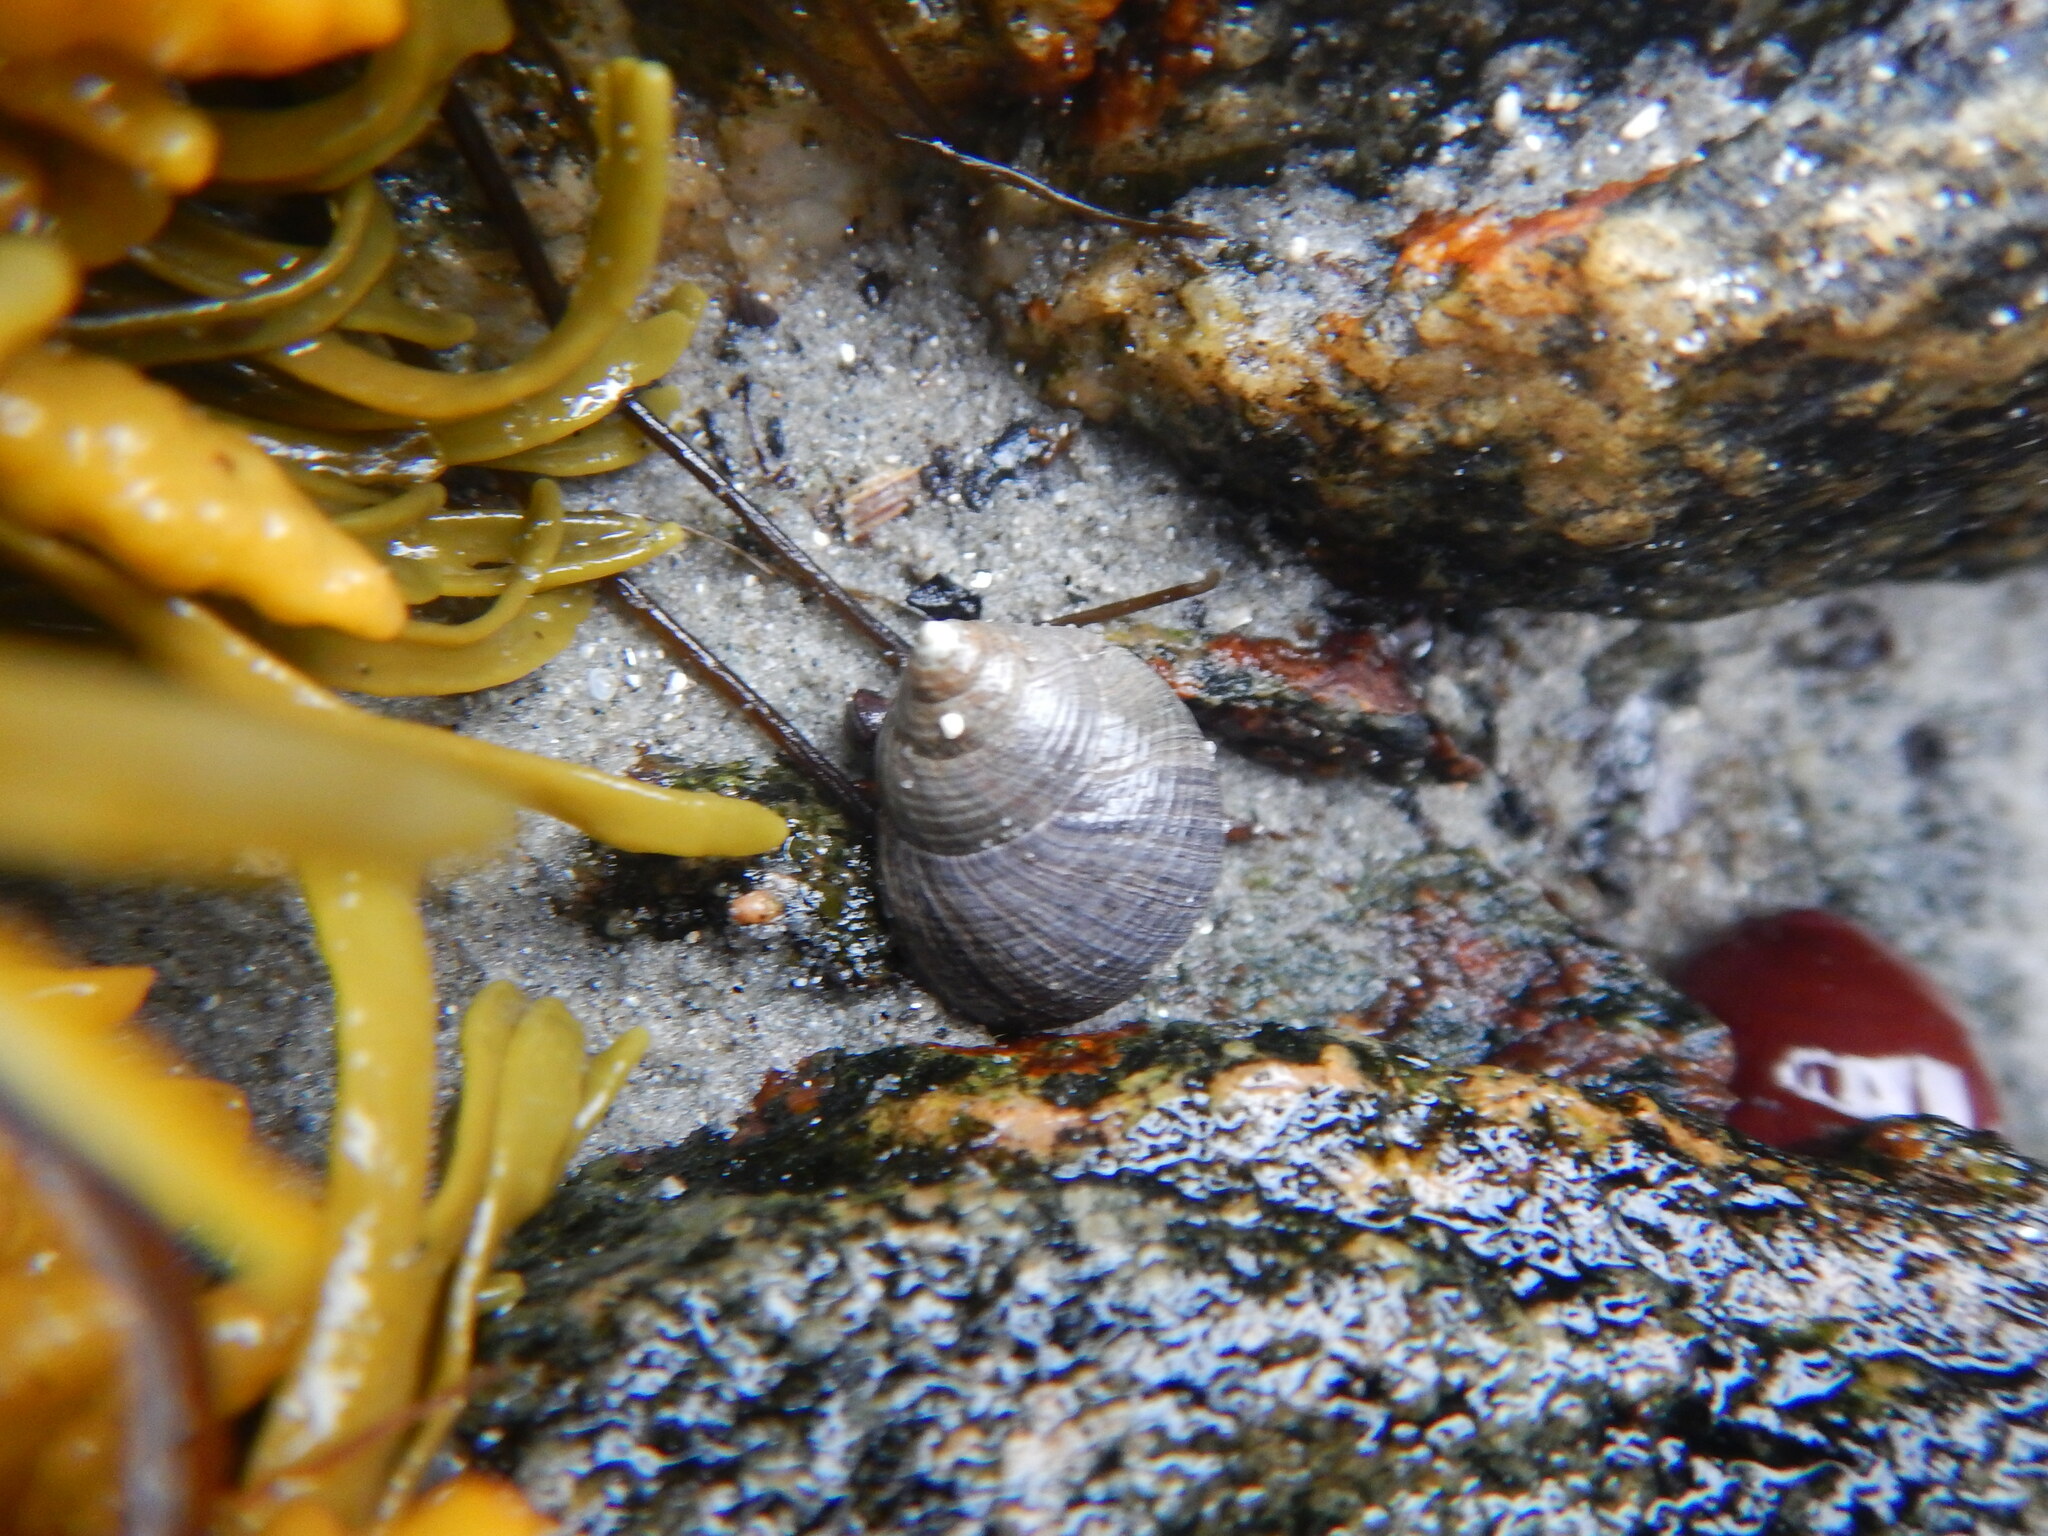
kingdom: Animalia
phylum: Mollusca
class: Gastropoda
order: Littorinimorpha
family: Littorinidae
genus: Littorina
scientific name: Littorina littorea
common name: Common periwinkle
